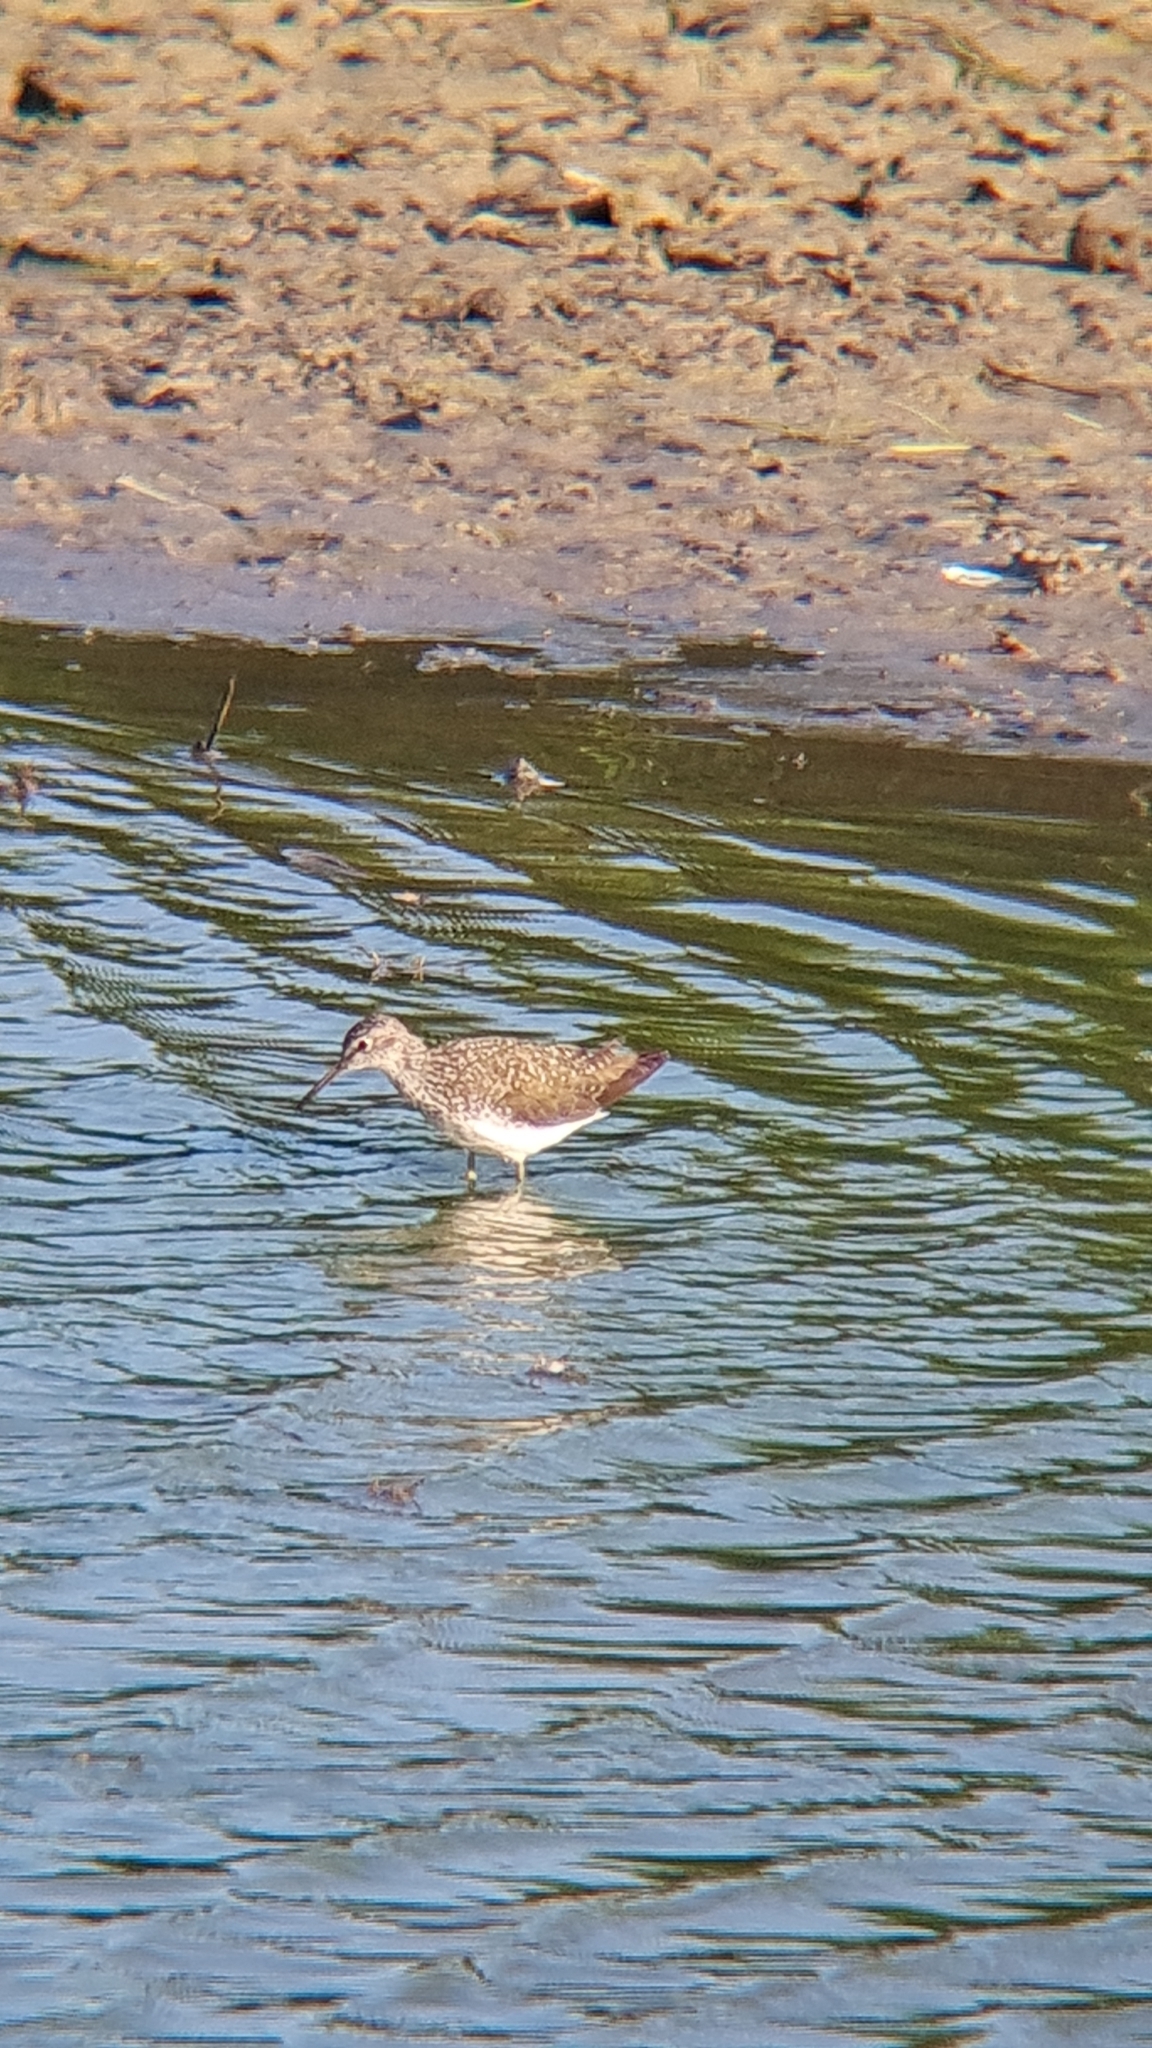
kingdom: Animalia
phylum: Chordata
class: Aves
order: Charadriiformes
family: Scolopacidae
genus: Tringa
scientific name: Tringa ochropus
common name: Green sandpiper
